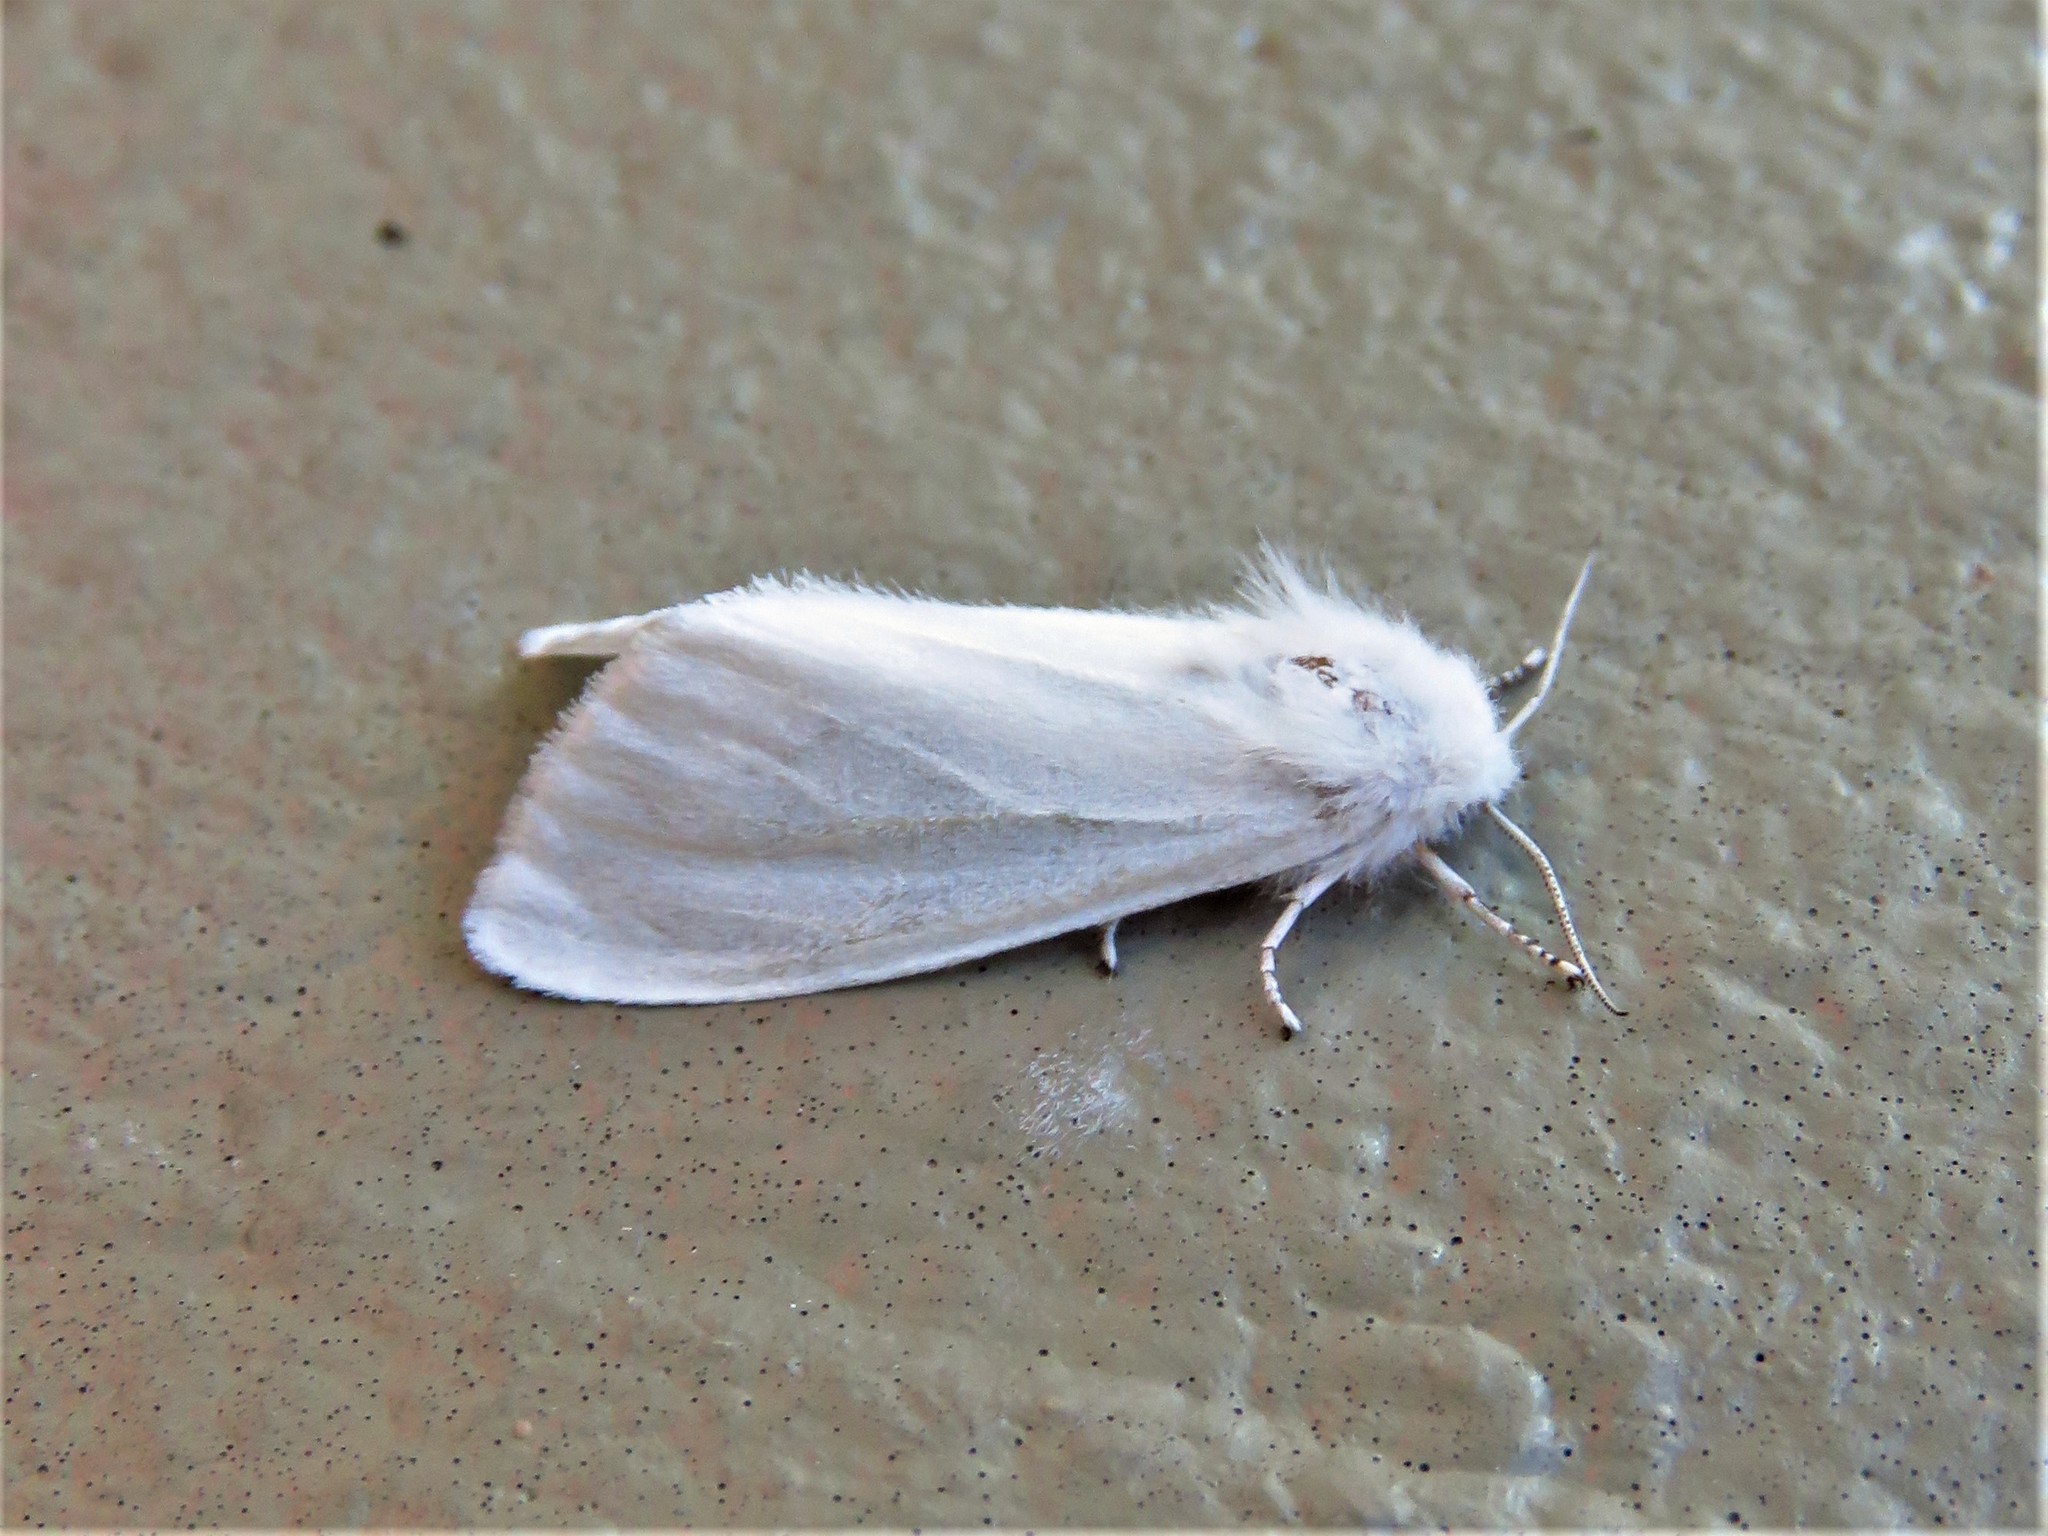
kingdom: Animalia
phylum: Arthropoda
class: Insecta
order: Lepidoptera
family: Erebidae
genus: Spilosoma
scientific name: Spilosoma virginica
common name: Virginia tiger moth
